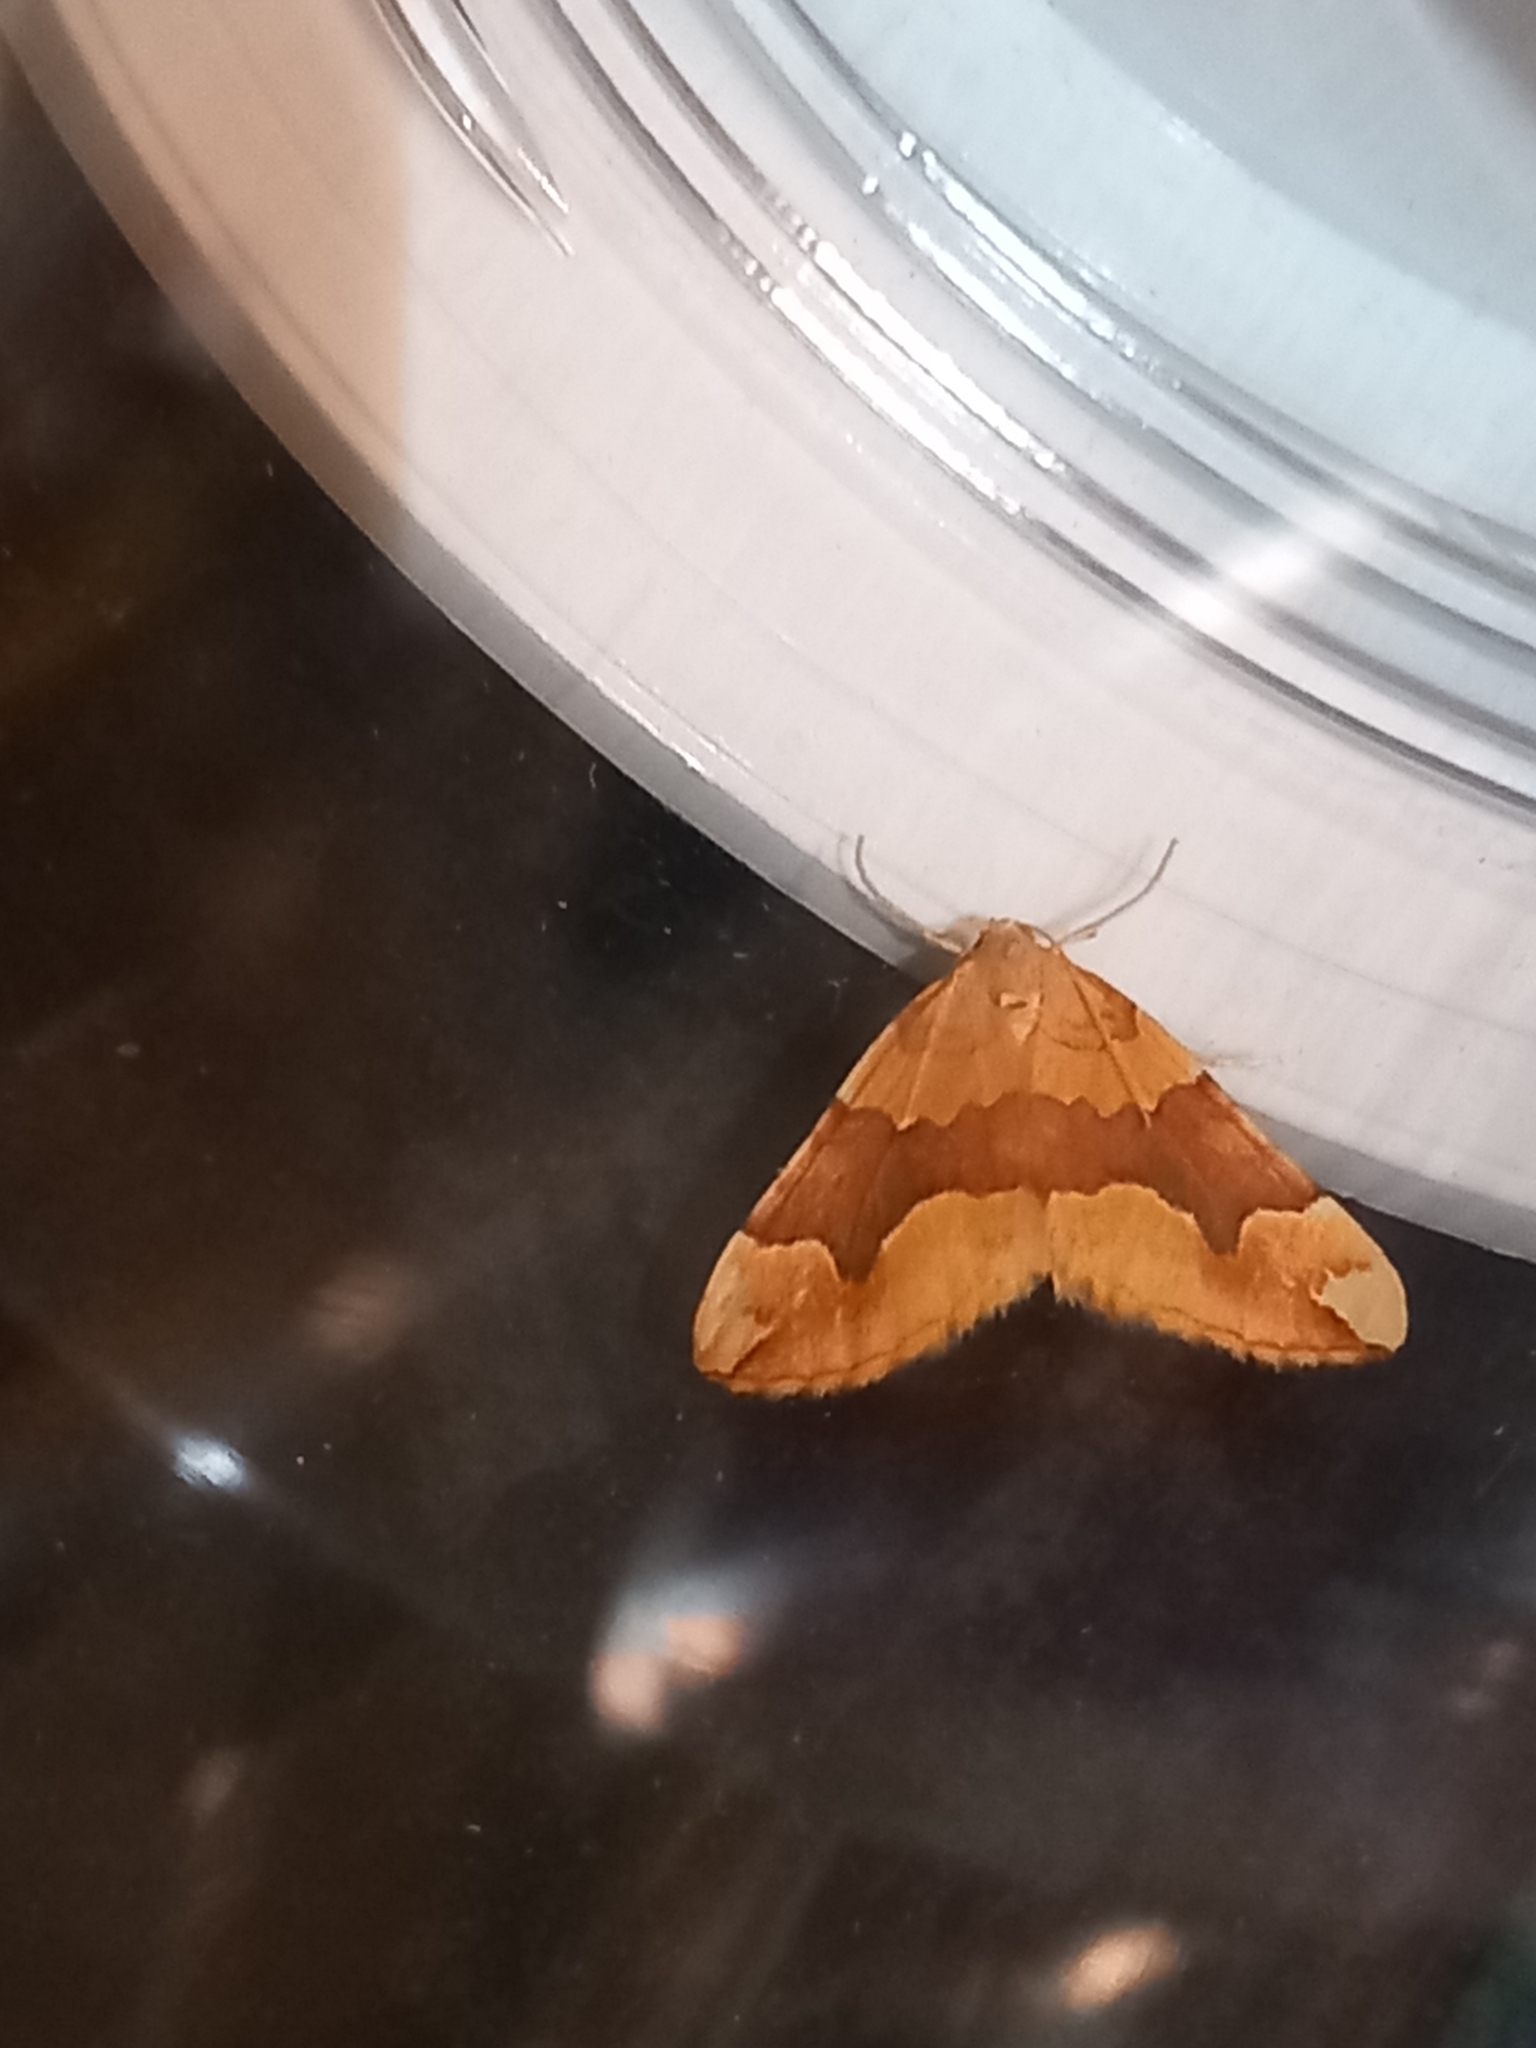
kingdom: Animalia
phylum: Arthropoda
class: Insecta
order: Lepidoptera
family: Geometridae
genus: Cidaria
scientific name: Cidaria fulvata
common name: Barred yellow
